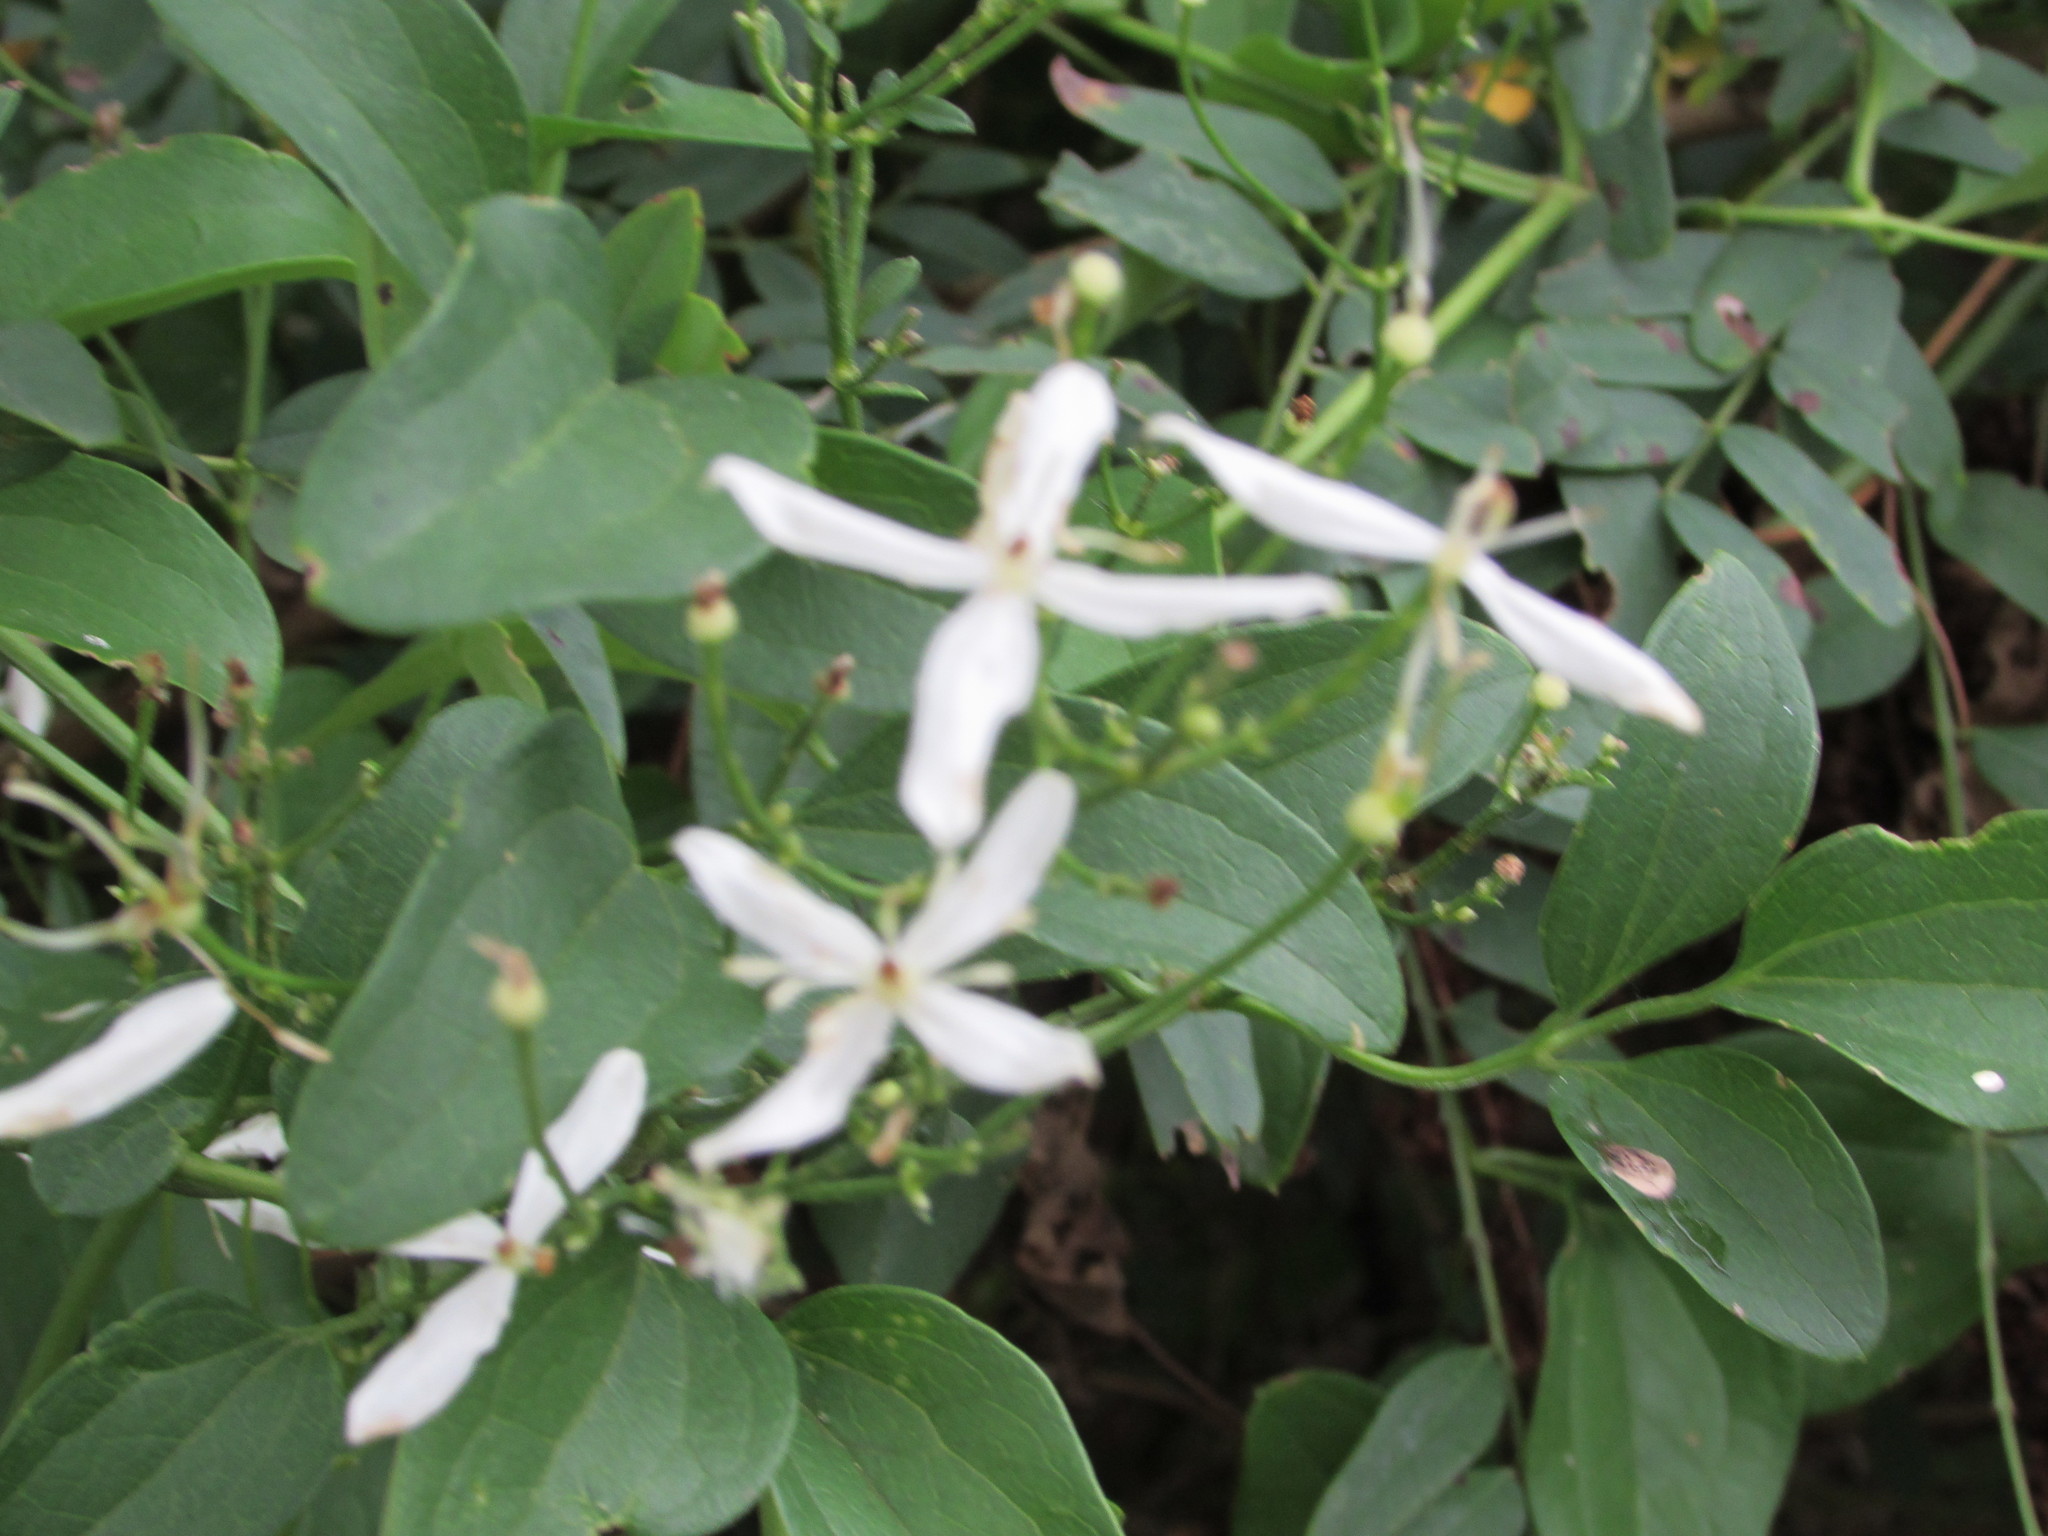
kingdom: Plantae
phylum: Tracheophyta
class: Magnoliopsida
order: Ranunculales
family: Ranunculaceae
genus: Clematis
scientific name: Clematis terniflora
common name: Sweet autumn clematis
